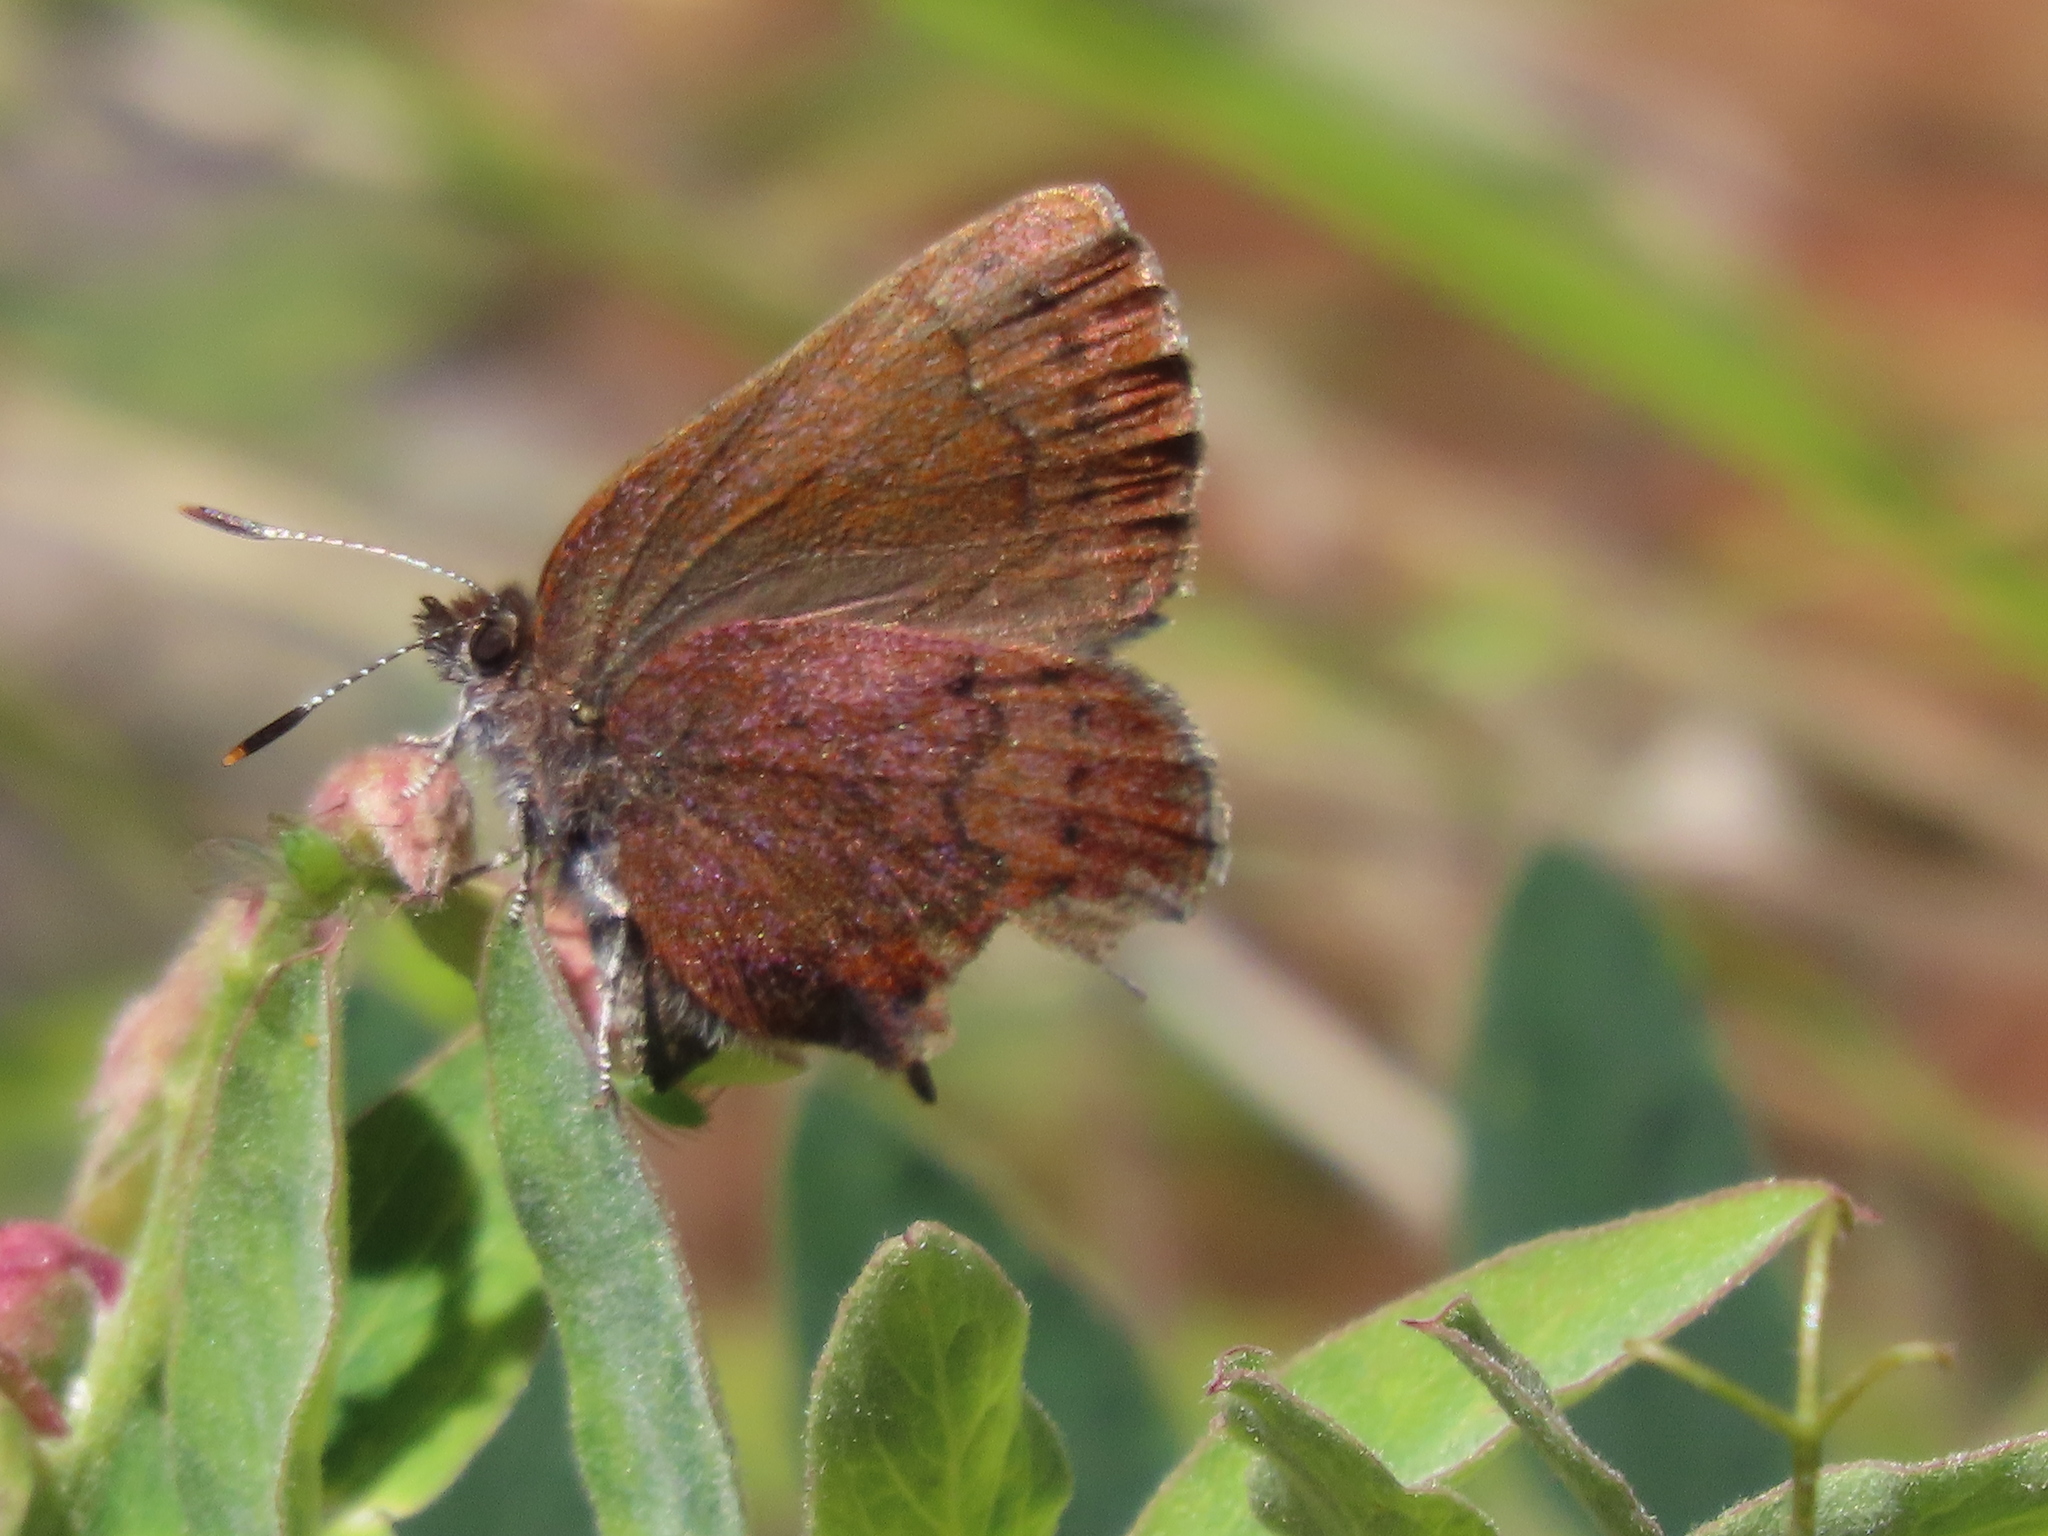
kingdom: Animalia
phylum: Arthropoda
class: Insecta
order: Lepidoptera
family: Lycaenidae
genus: Incisalia
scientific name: Incisalia irioides
